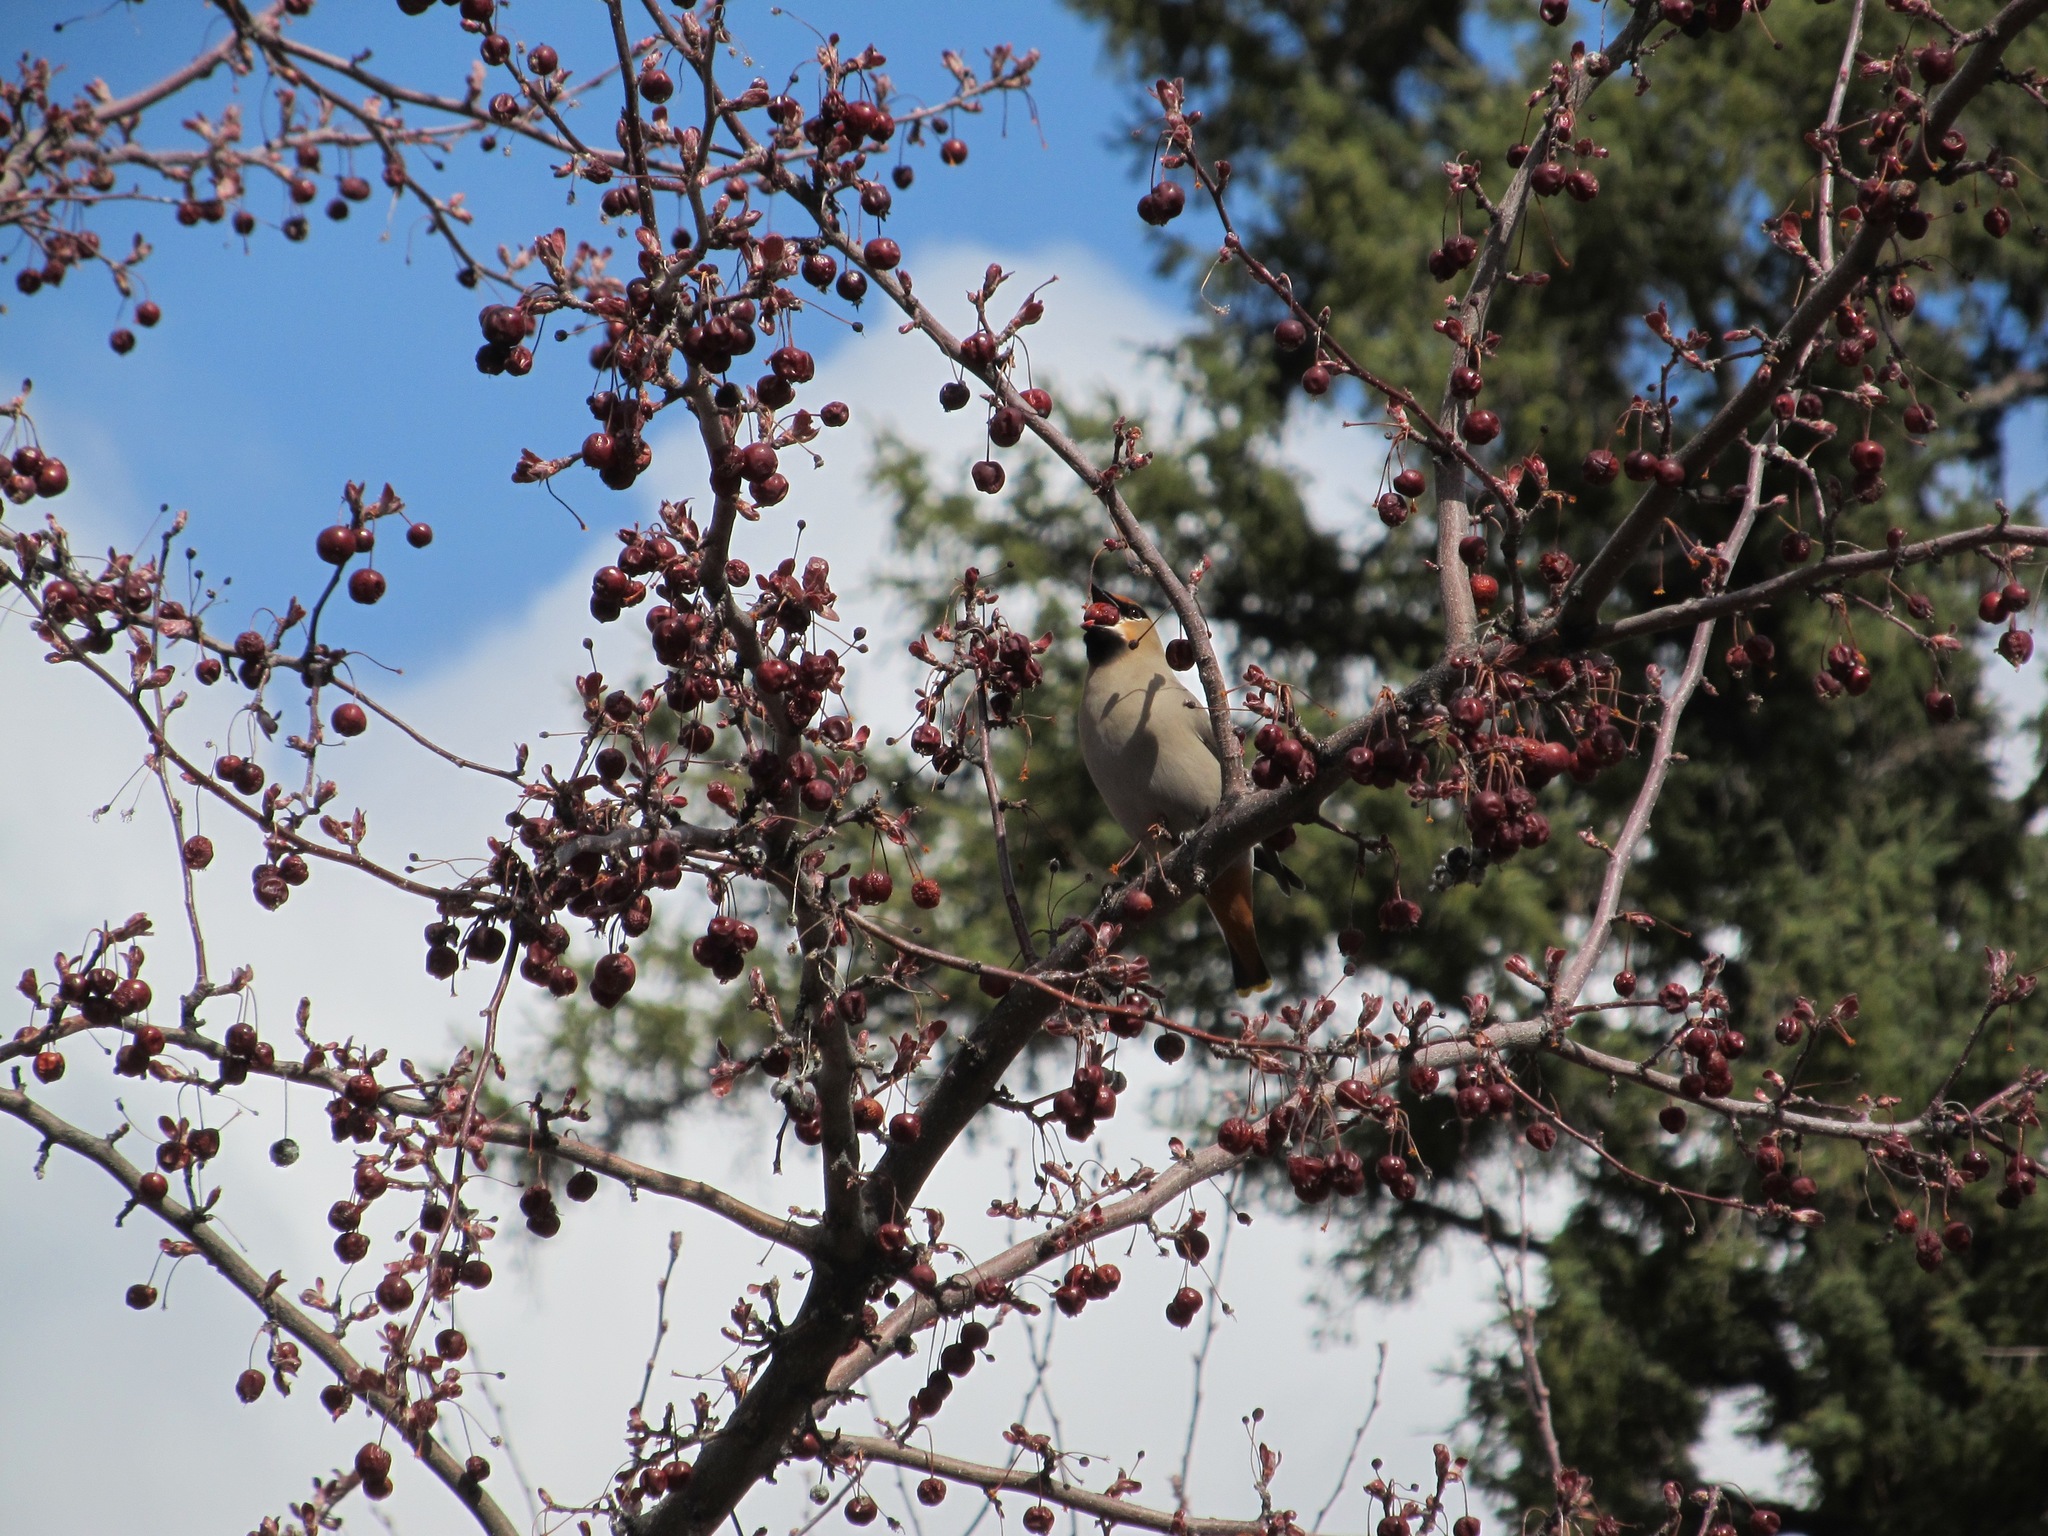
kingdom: Animalia
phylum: Chordata
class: Aves
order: Passeriformes
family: Bombycillidae
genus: Bombycilla
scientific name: Bombycilla garrulus
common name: Bohemian waxwing
